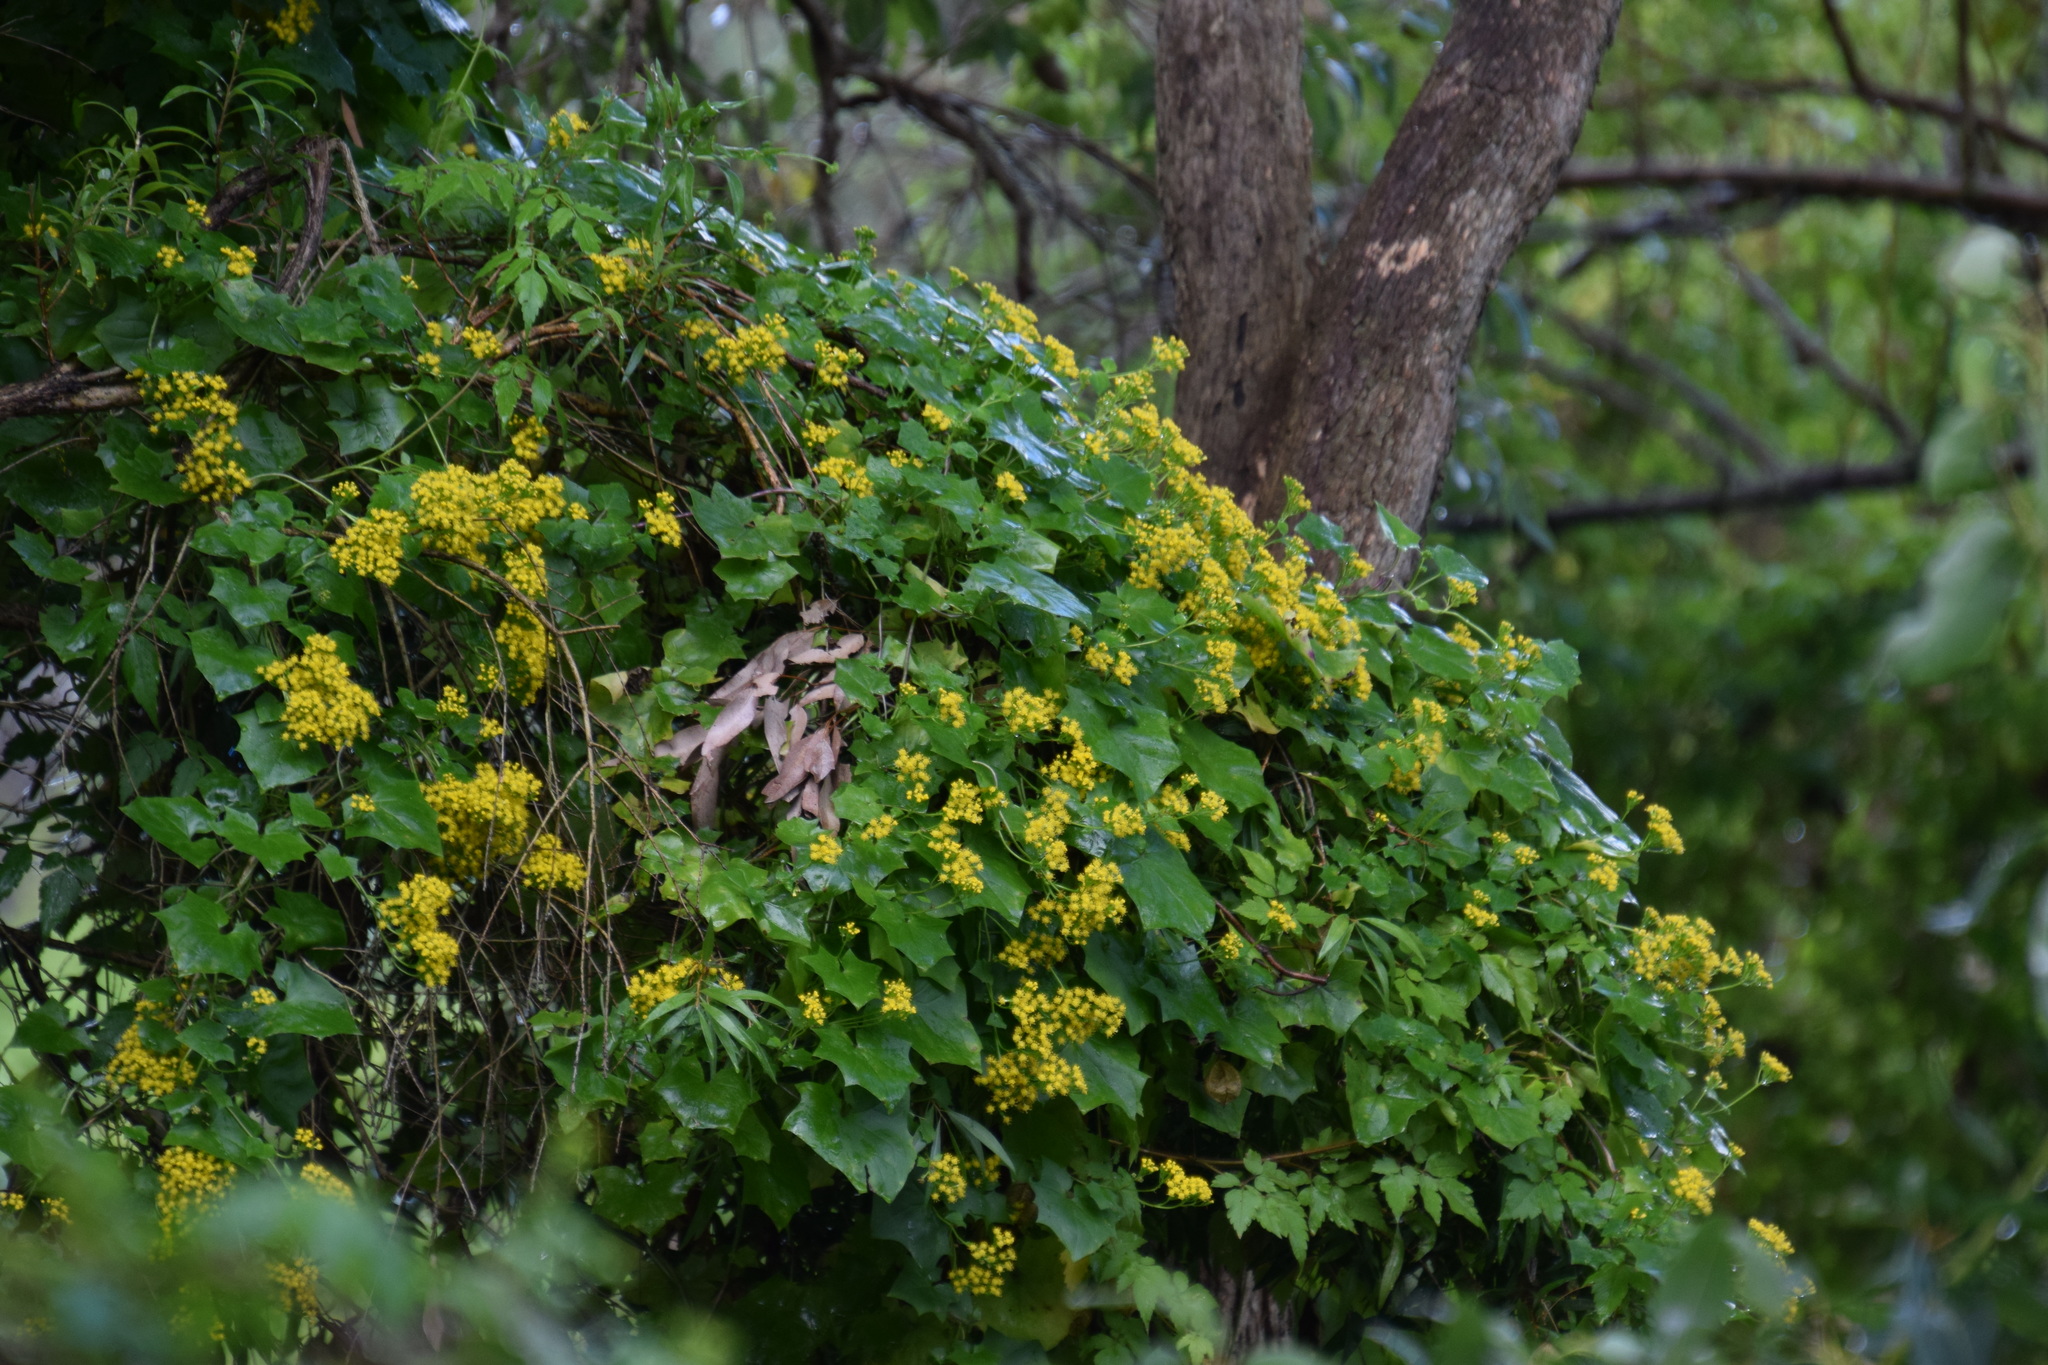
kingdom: Plantae
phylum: Tracheophyta
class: Magnoliopsida
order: Asterales
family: Asteraceae
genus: Delairea
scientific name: Delairea odorata
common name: Cape-ivy
